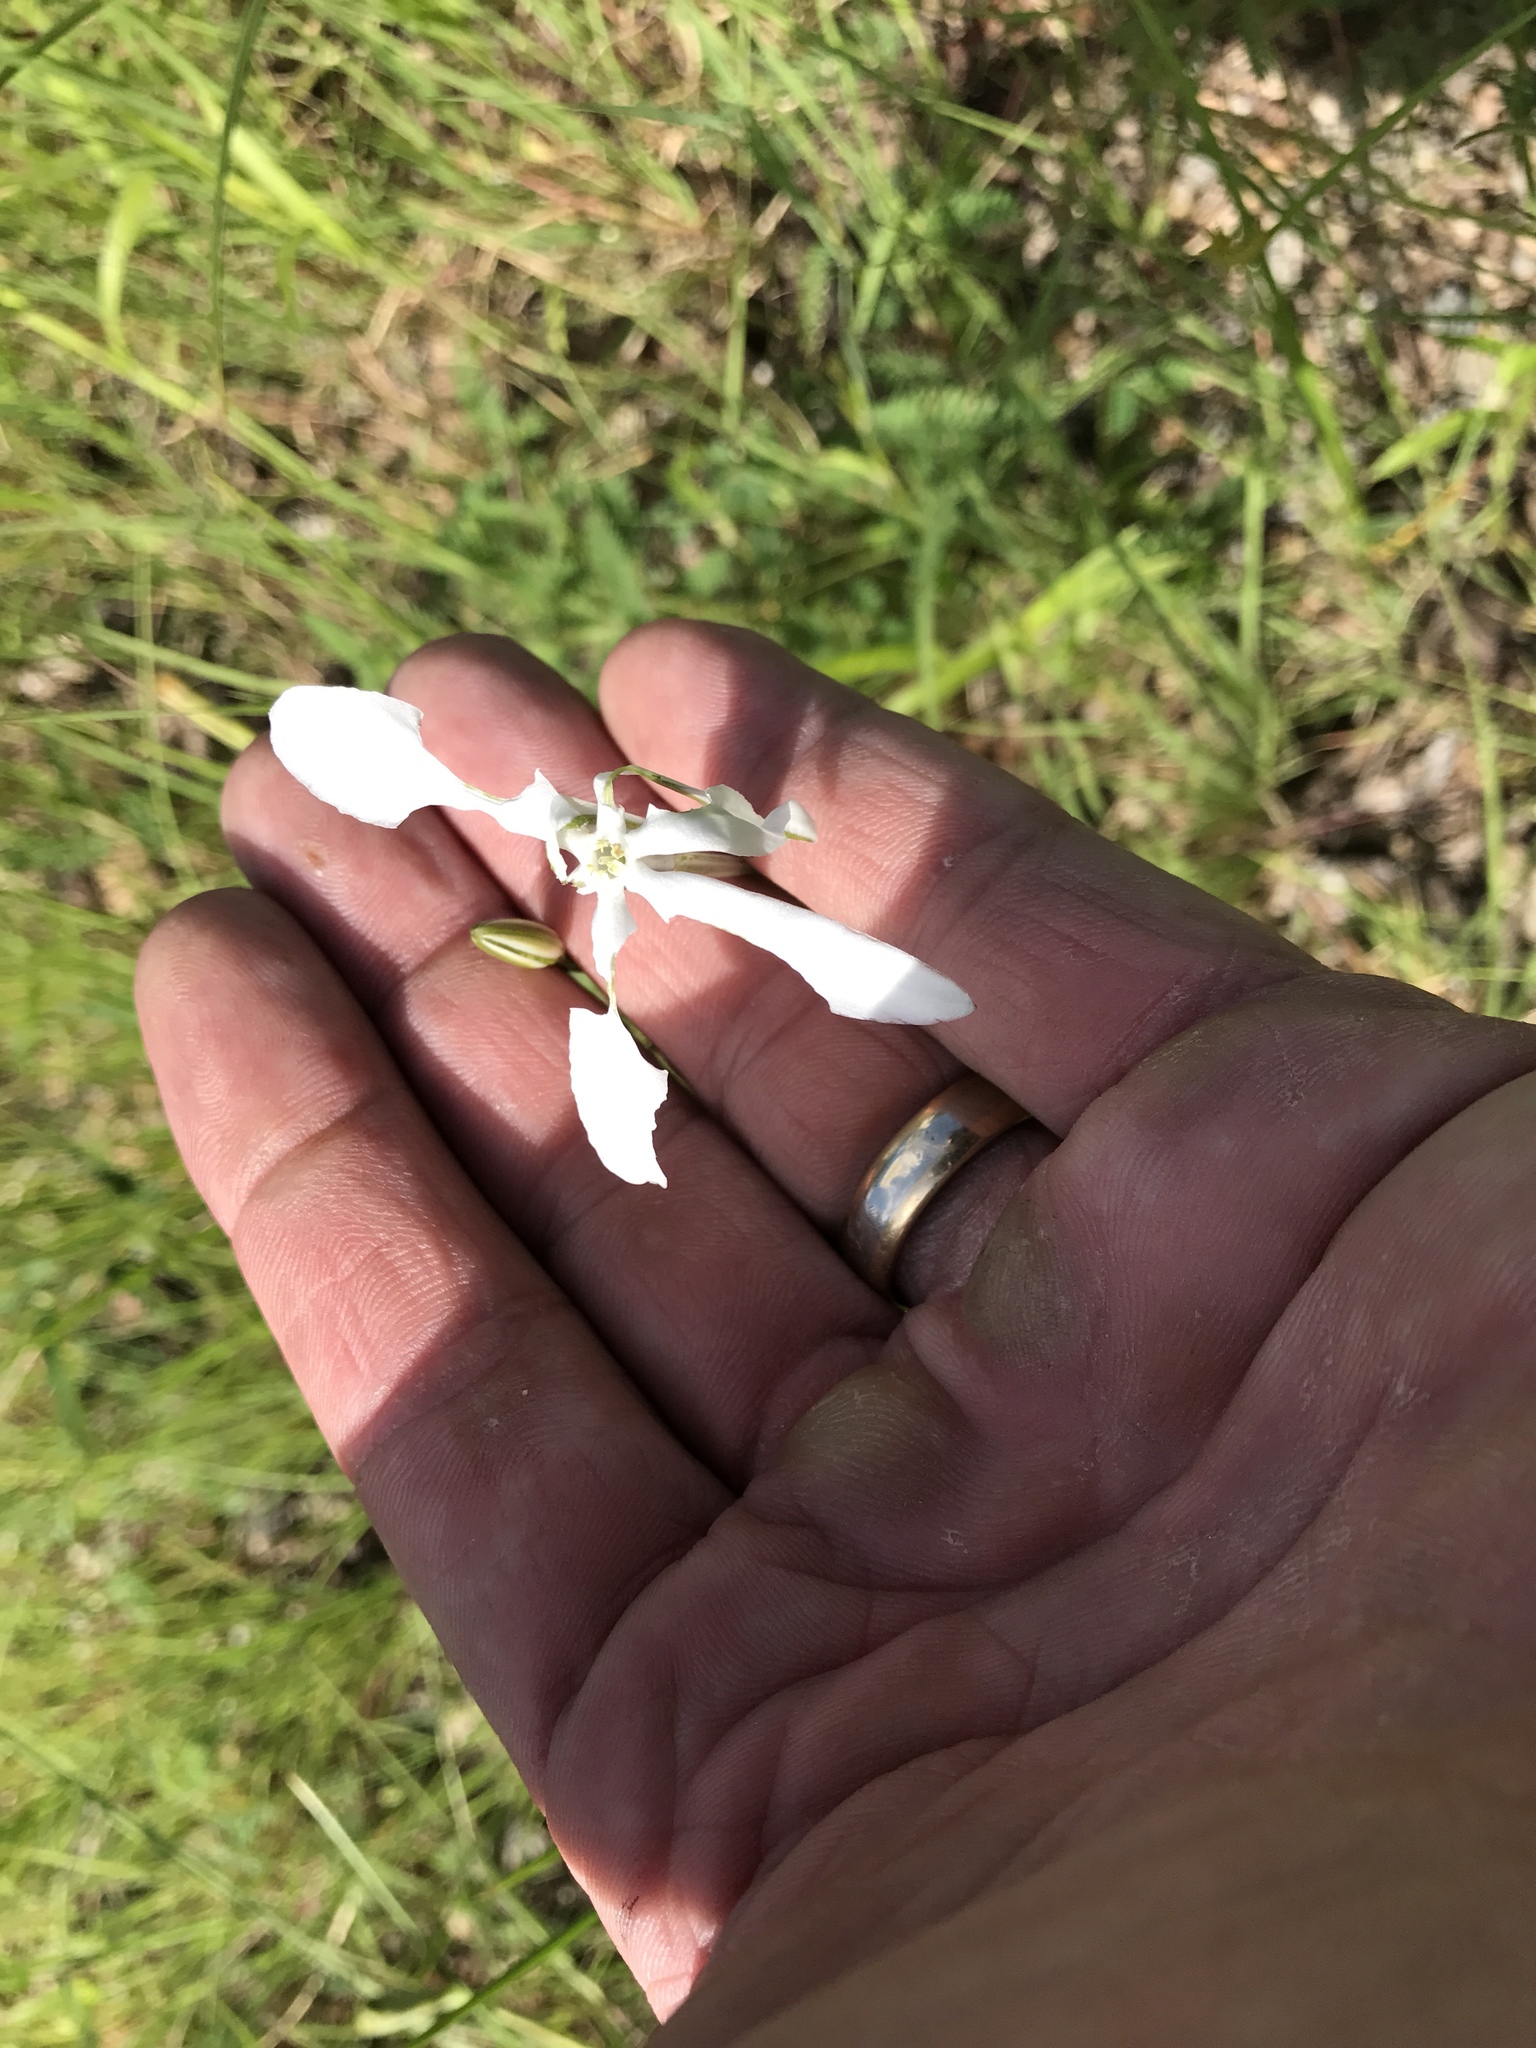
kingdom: Plantae
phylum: Tracheophyta
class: Liliopsida
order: Asparagales
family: Asparagaceae
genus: Milla
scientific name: Milla biflora
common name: Mexican-star
